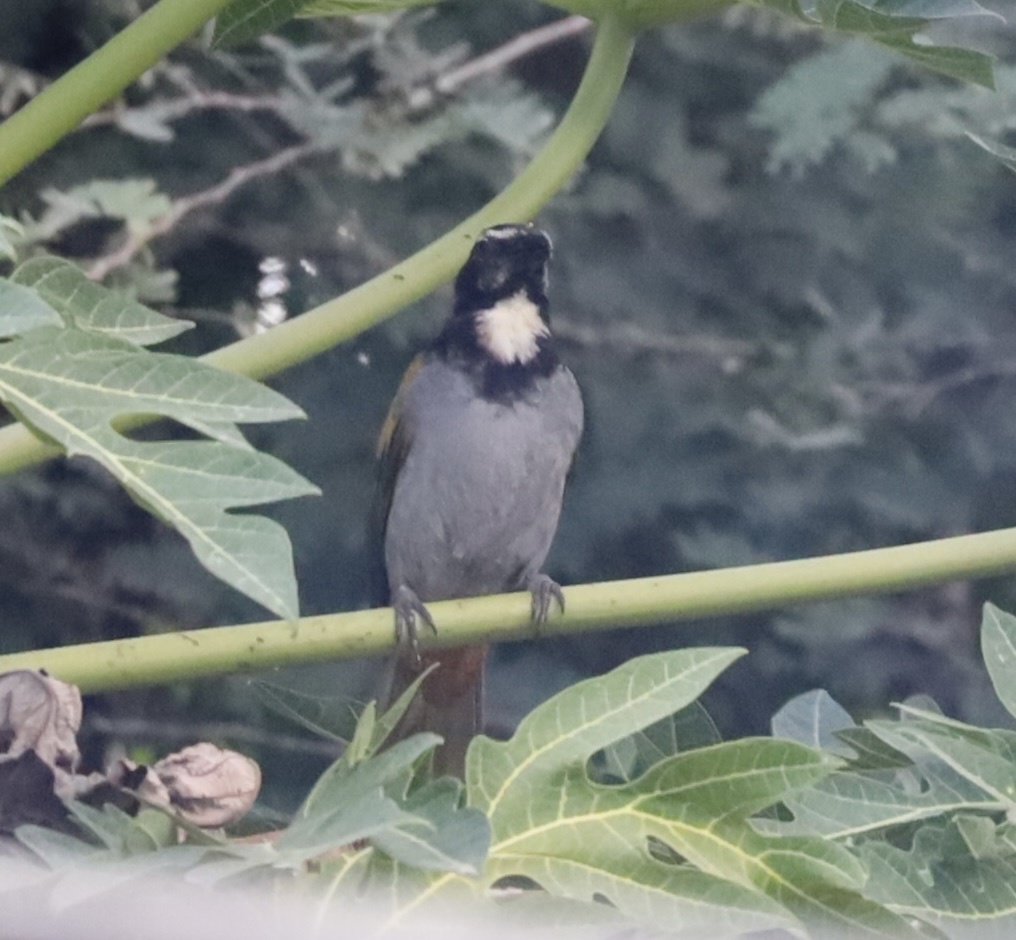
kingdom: Animalia
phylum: Chordata
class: Aves
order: Passeriformes
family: Thraupidae
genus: Saltator
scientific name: Saltator atriceps
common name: Black-headed saltator
